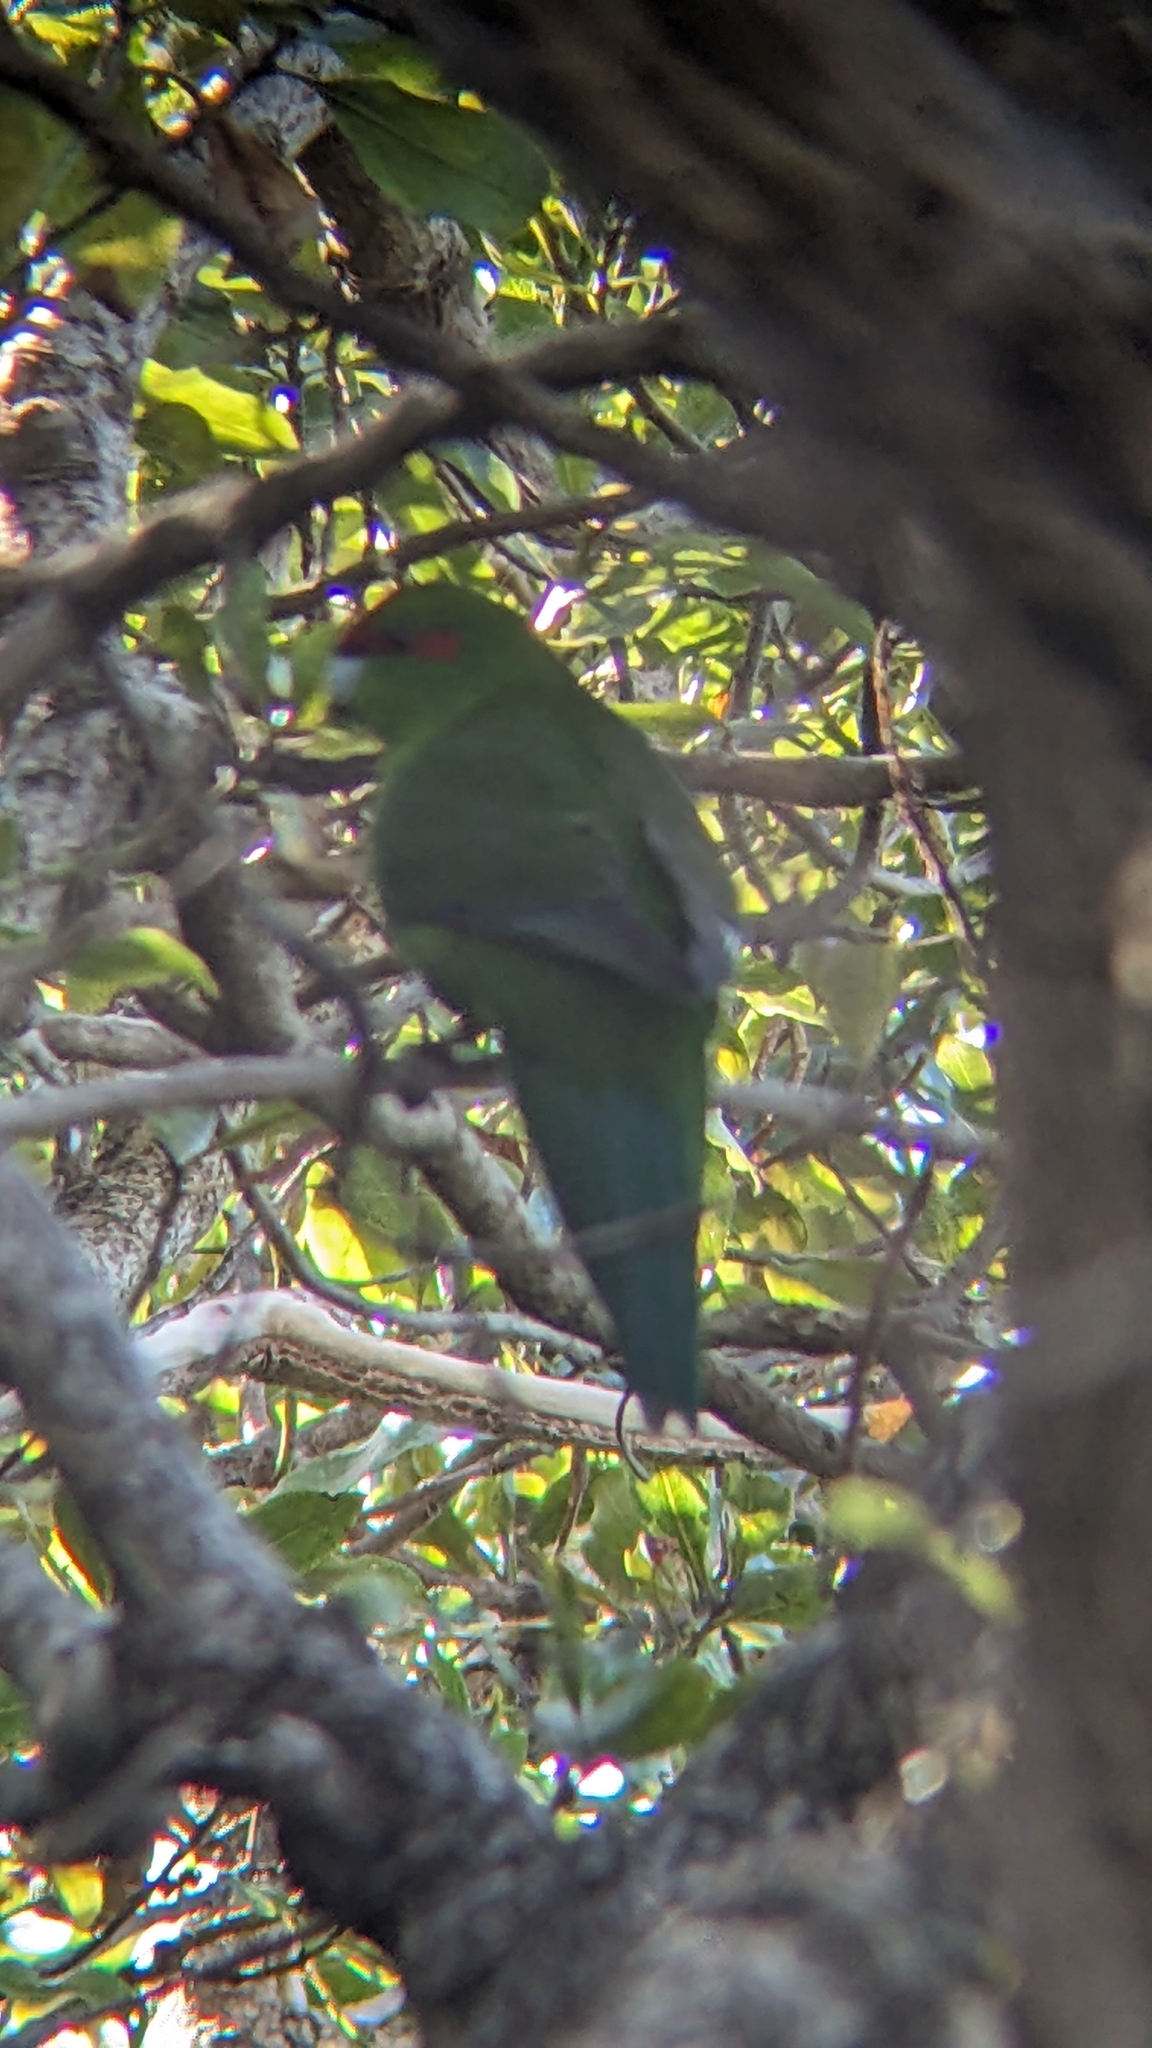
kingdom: Animalia
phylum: Chordata
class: Aves
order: Psittaciformes
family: Psittacidae
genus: Cyanoramphus
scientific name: Cyanoramphus novaezelandiae
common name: Red-fronted parakeet
